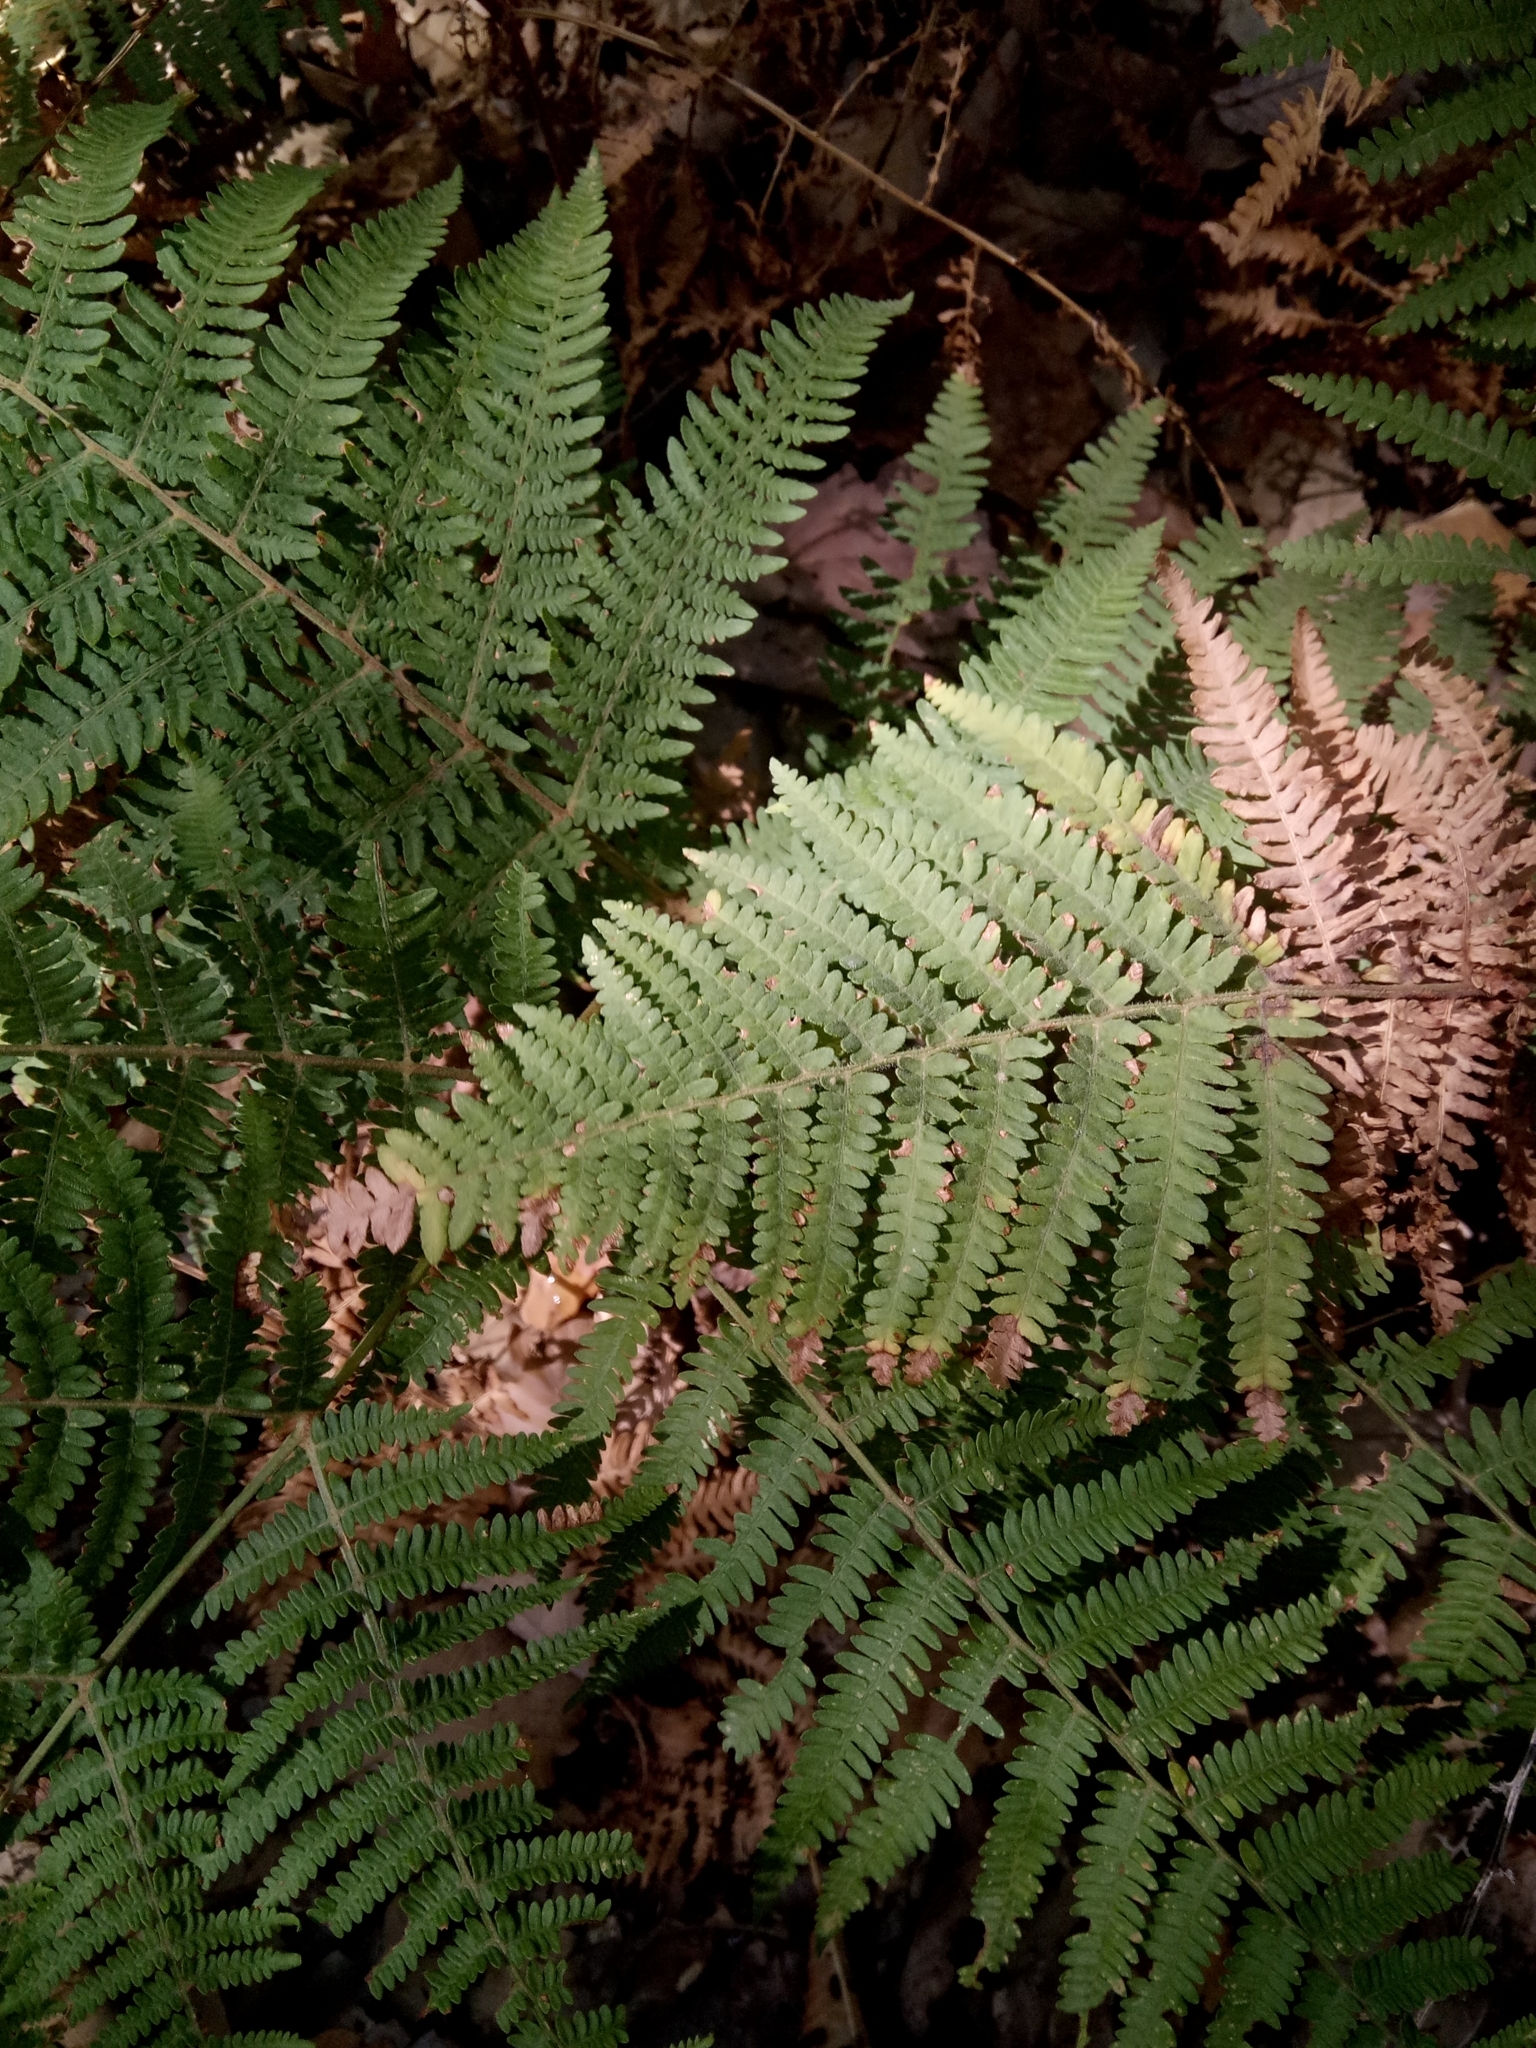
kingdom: Plantae
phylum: Tracheophyta
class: Polypodiopsida
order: Polypodiales
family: Dennstaedtiaceae
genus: Pteridium
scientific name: Pteridium aquilinum
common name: Bracken
